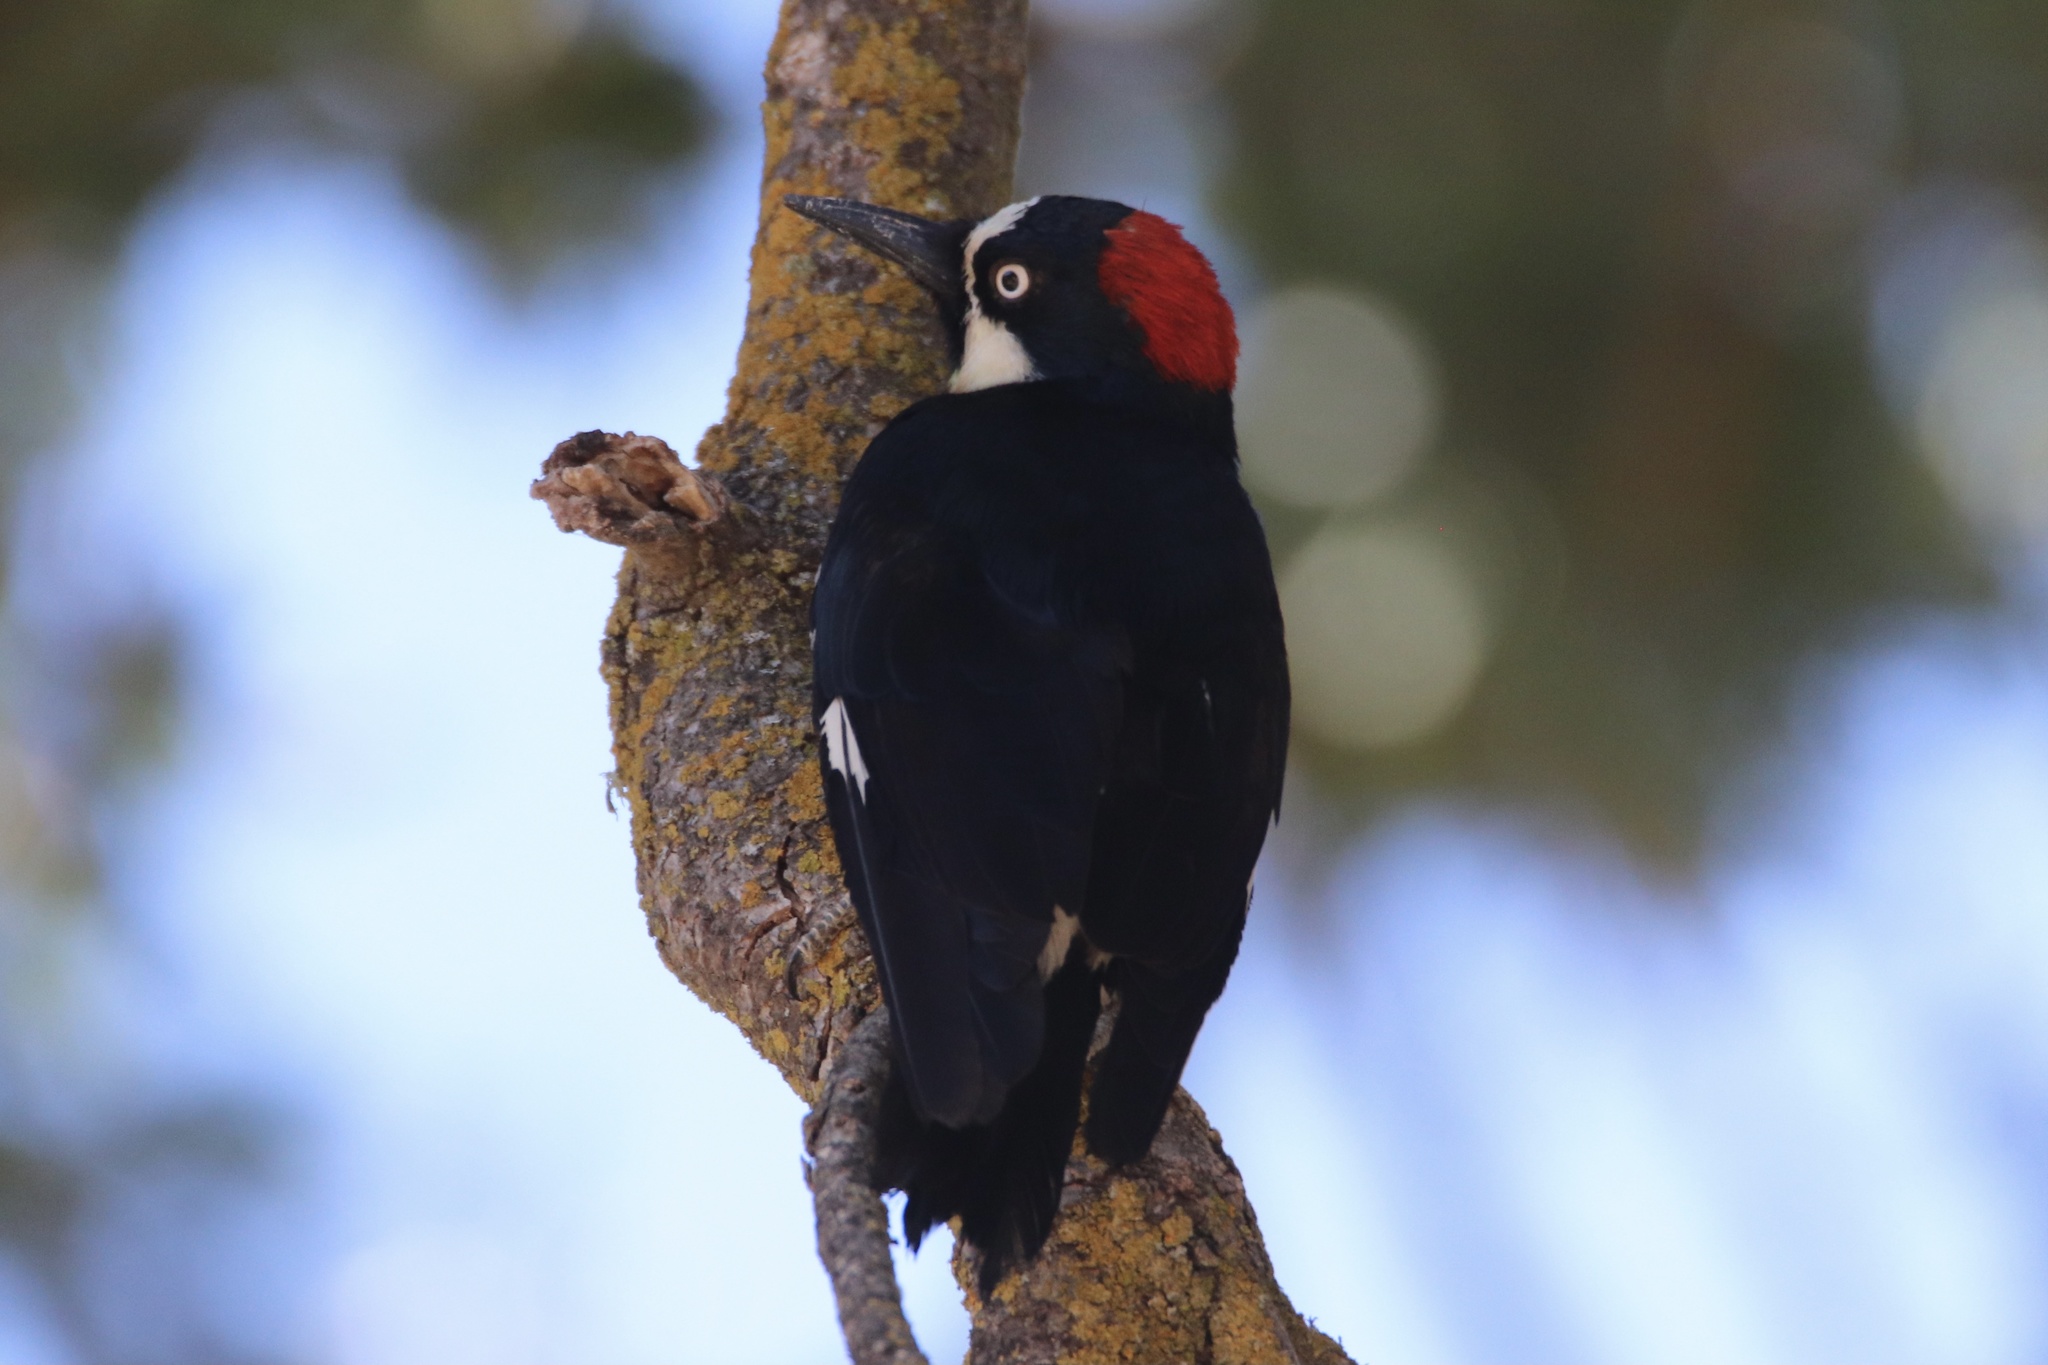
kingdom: Animalia
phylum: Chordata
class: Aves
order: Piciformes
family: Picidae
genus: Melanerpes
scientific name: Melanerpes formicivorus
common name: Acorn woodpecker
